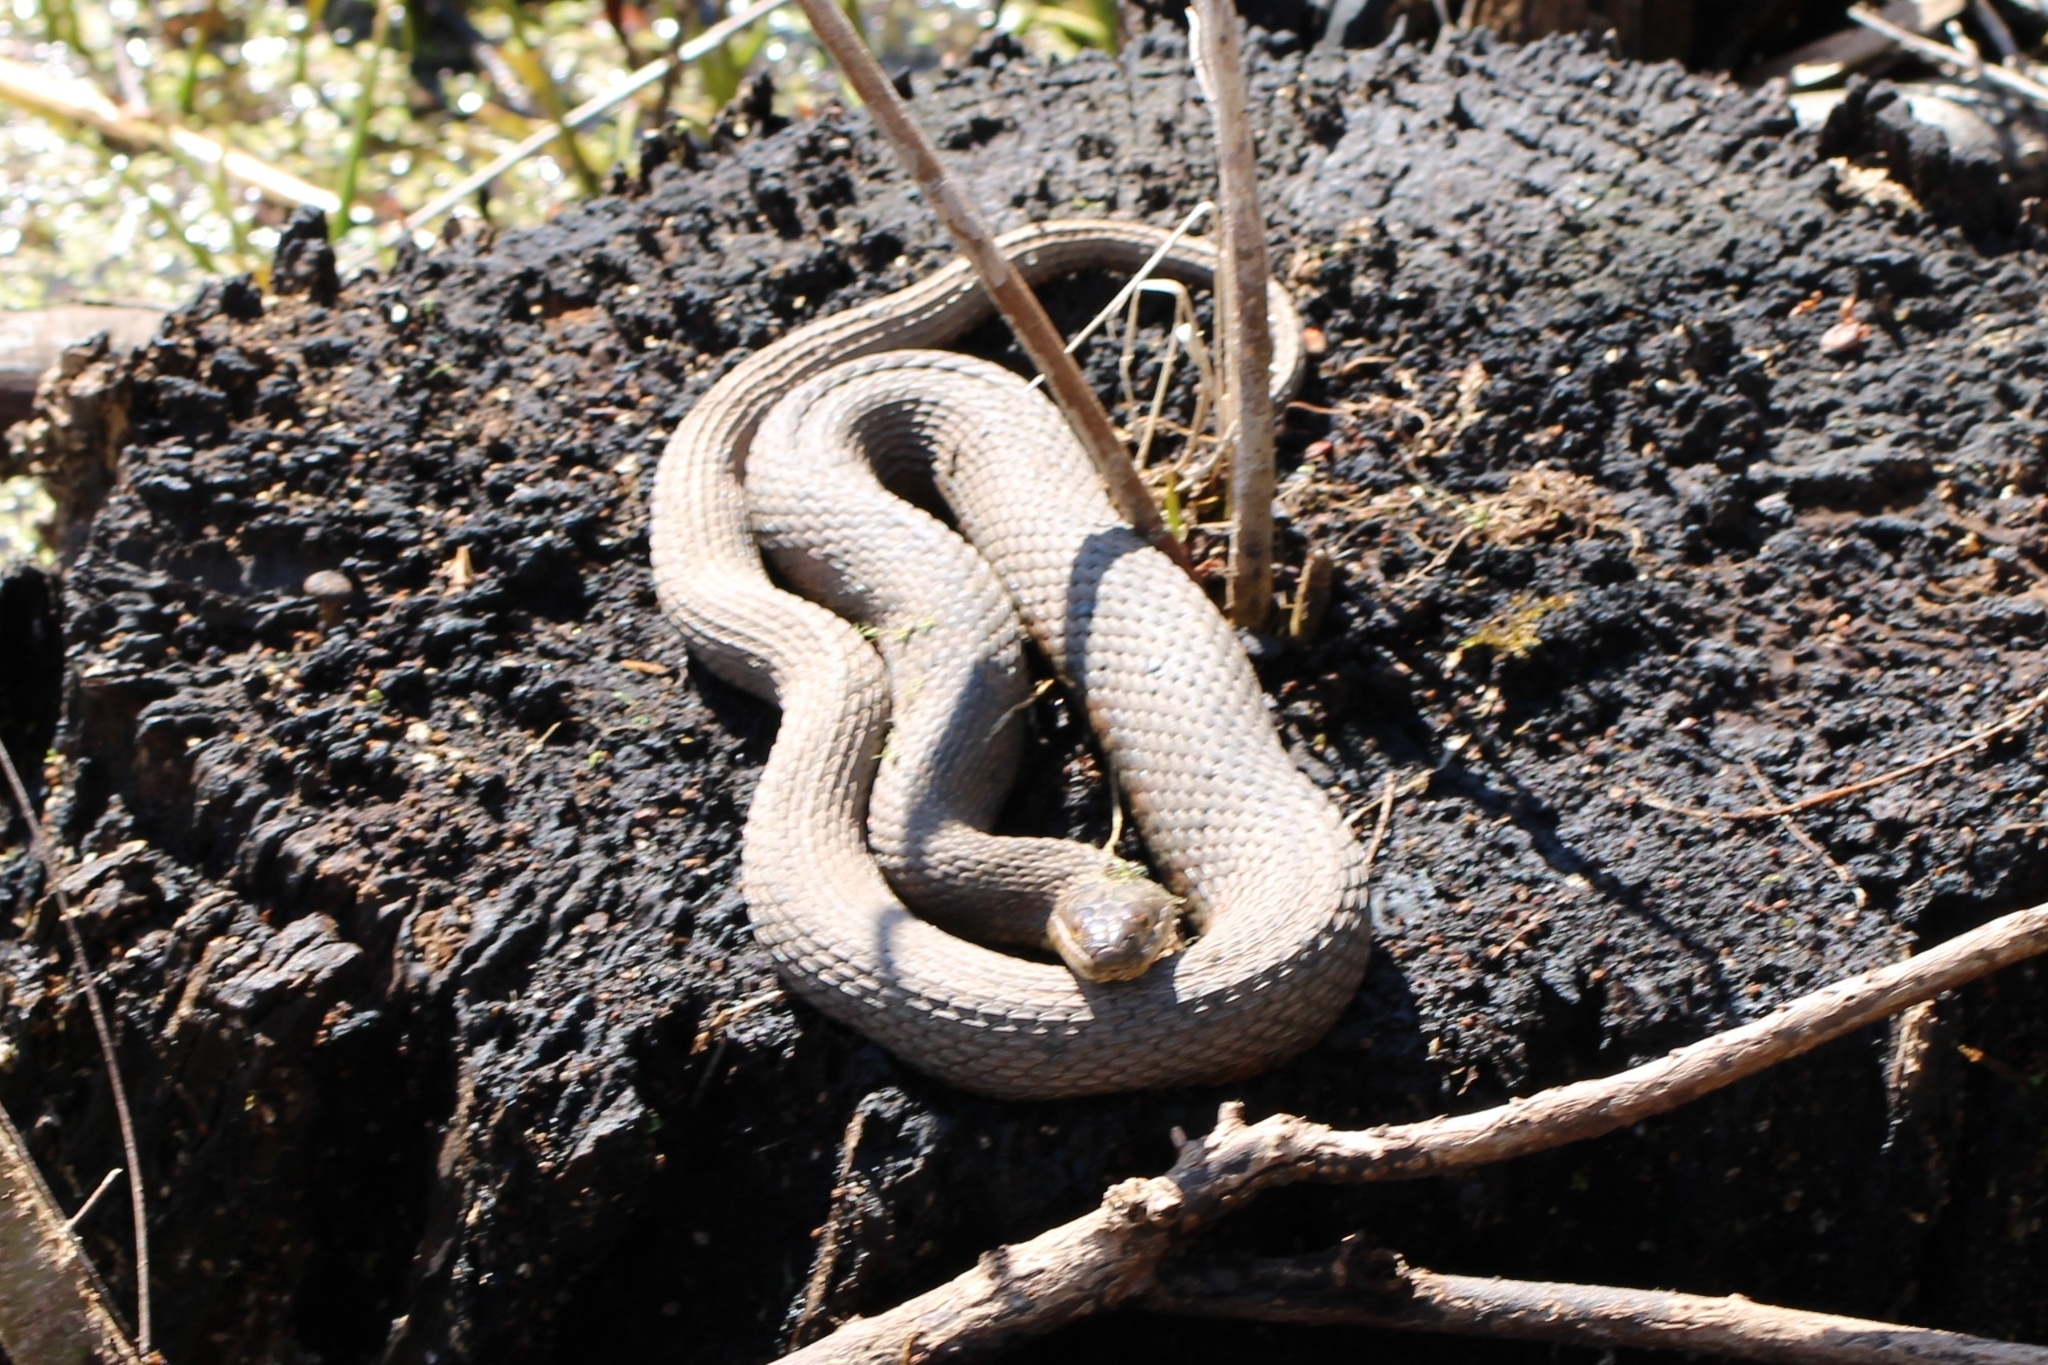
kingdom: Animalia
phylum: Chordata
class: Squamata
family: Colubridae
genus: Nerodia
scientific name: Nerodia sipedon
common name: Northern water snake
